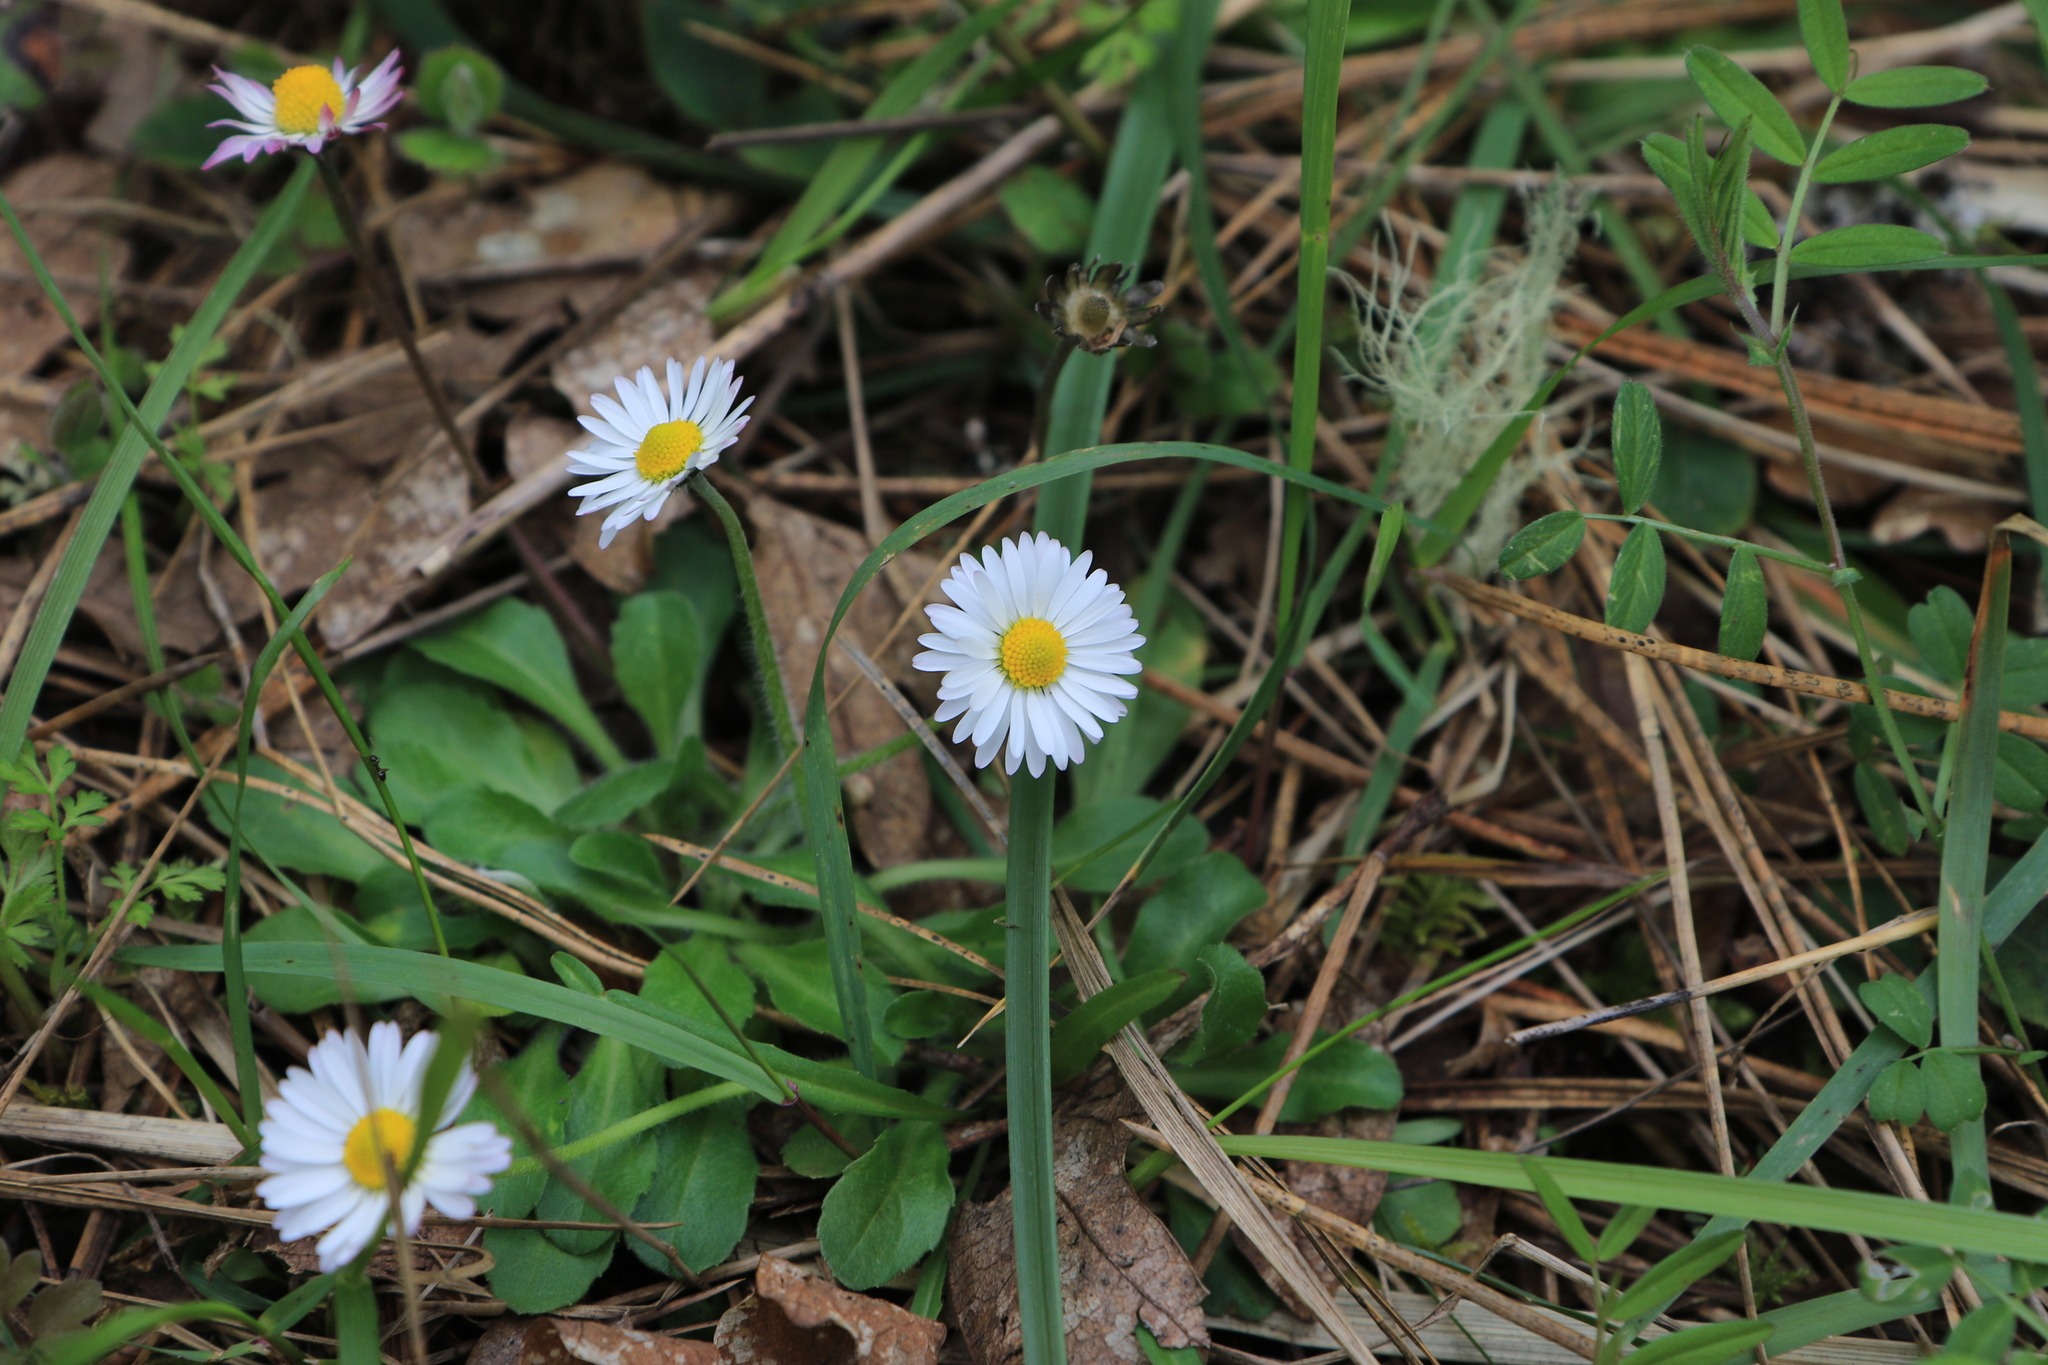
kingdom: Plantae
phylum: Tracheophyta
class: Magnoliopsida
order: Asterales
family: Asteraceae
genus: Bellis
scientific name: Bellis perennis
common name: Lawndaisy
